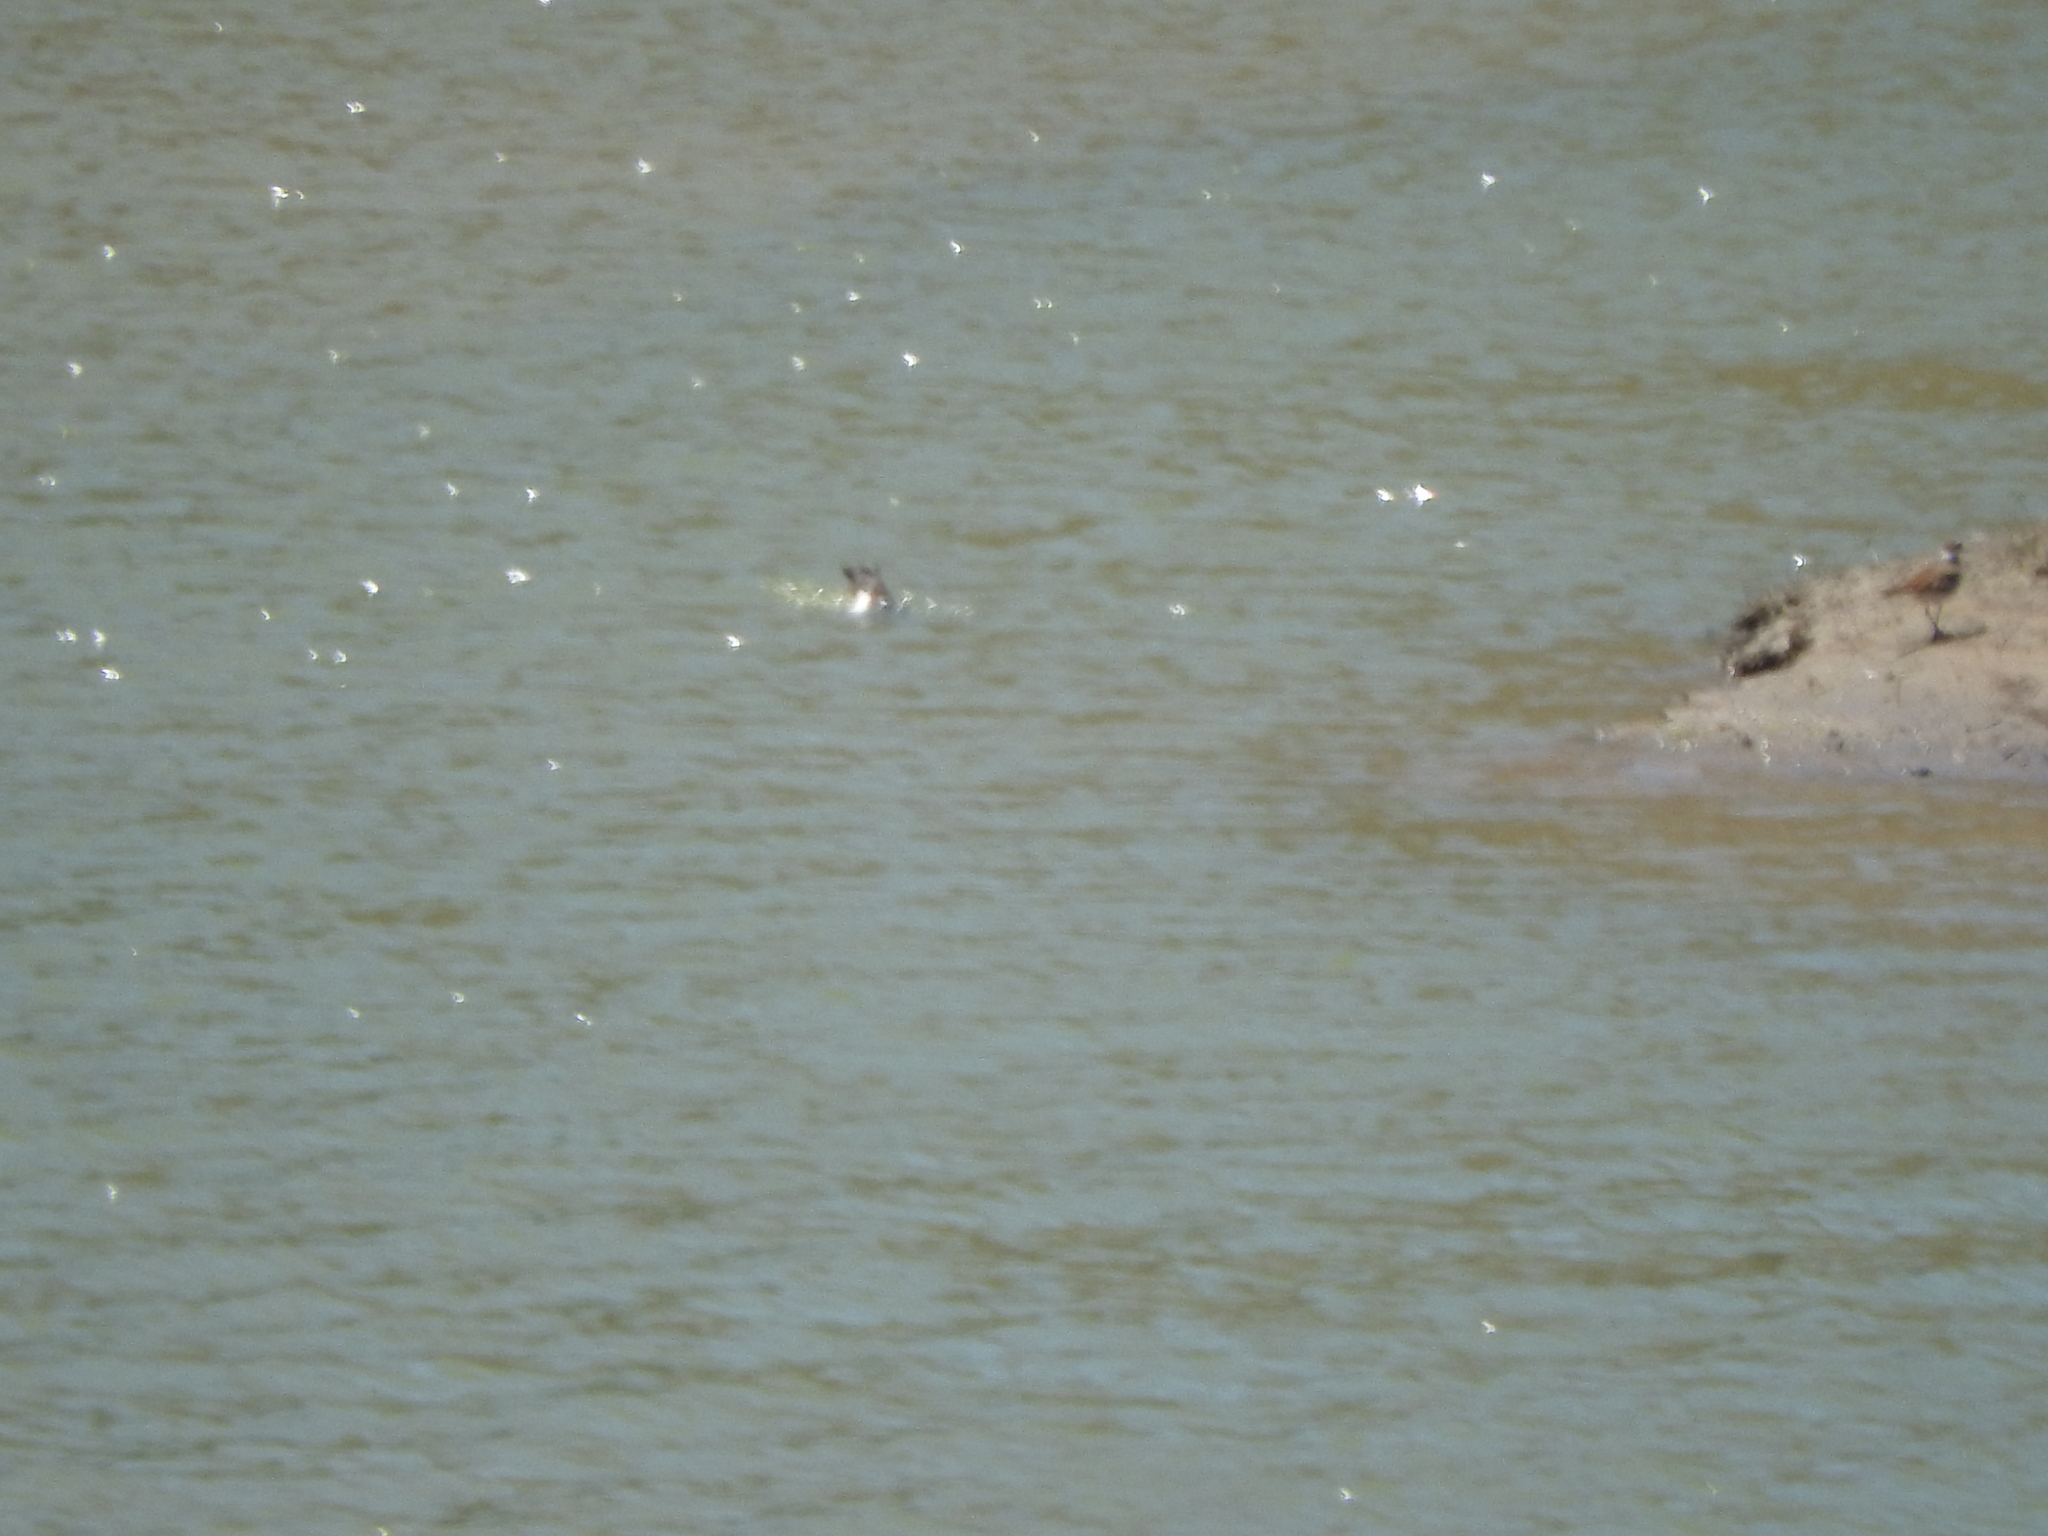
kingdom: Animalia
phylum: Chordata
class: Aves
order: Charadriiformes
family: Charadriidae
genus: Charadrius
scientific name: Charadrius vociferus
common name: Killdeer
